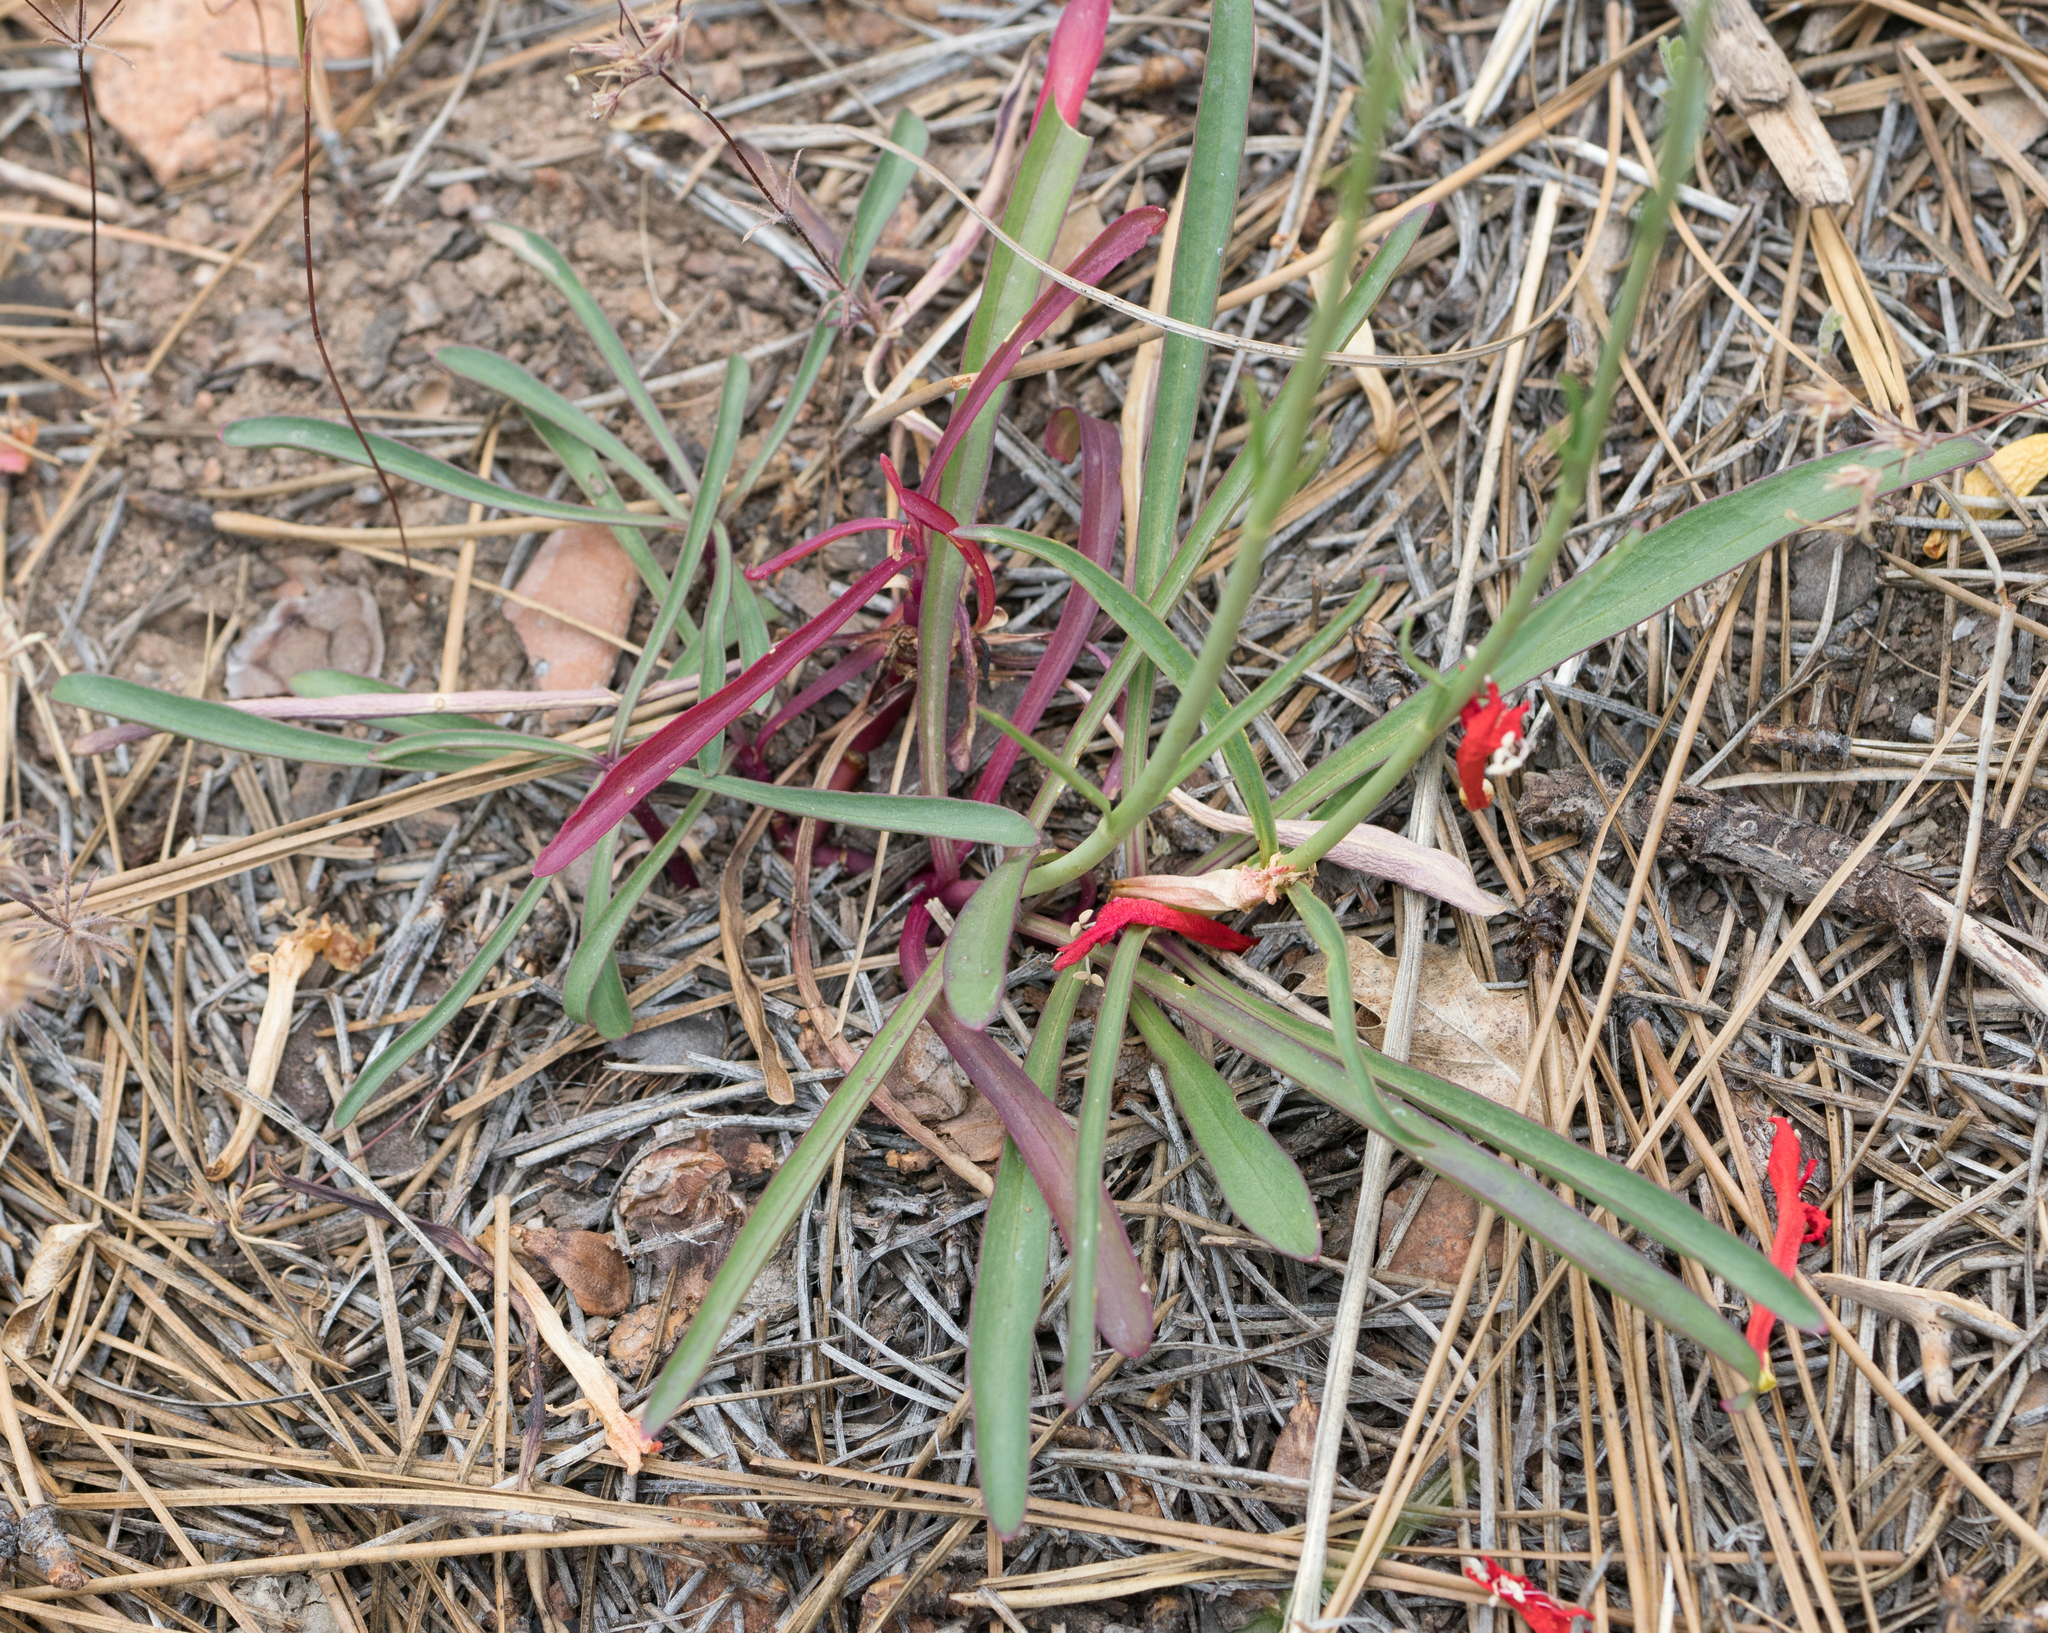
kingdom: Plantae
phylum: Tracheophyta
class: Magnoliopsida
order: Lamiales
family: Plantaginaceae
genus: Penstemon
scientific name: Penstemon labrosus
